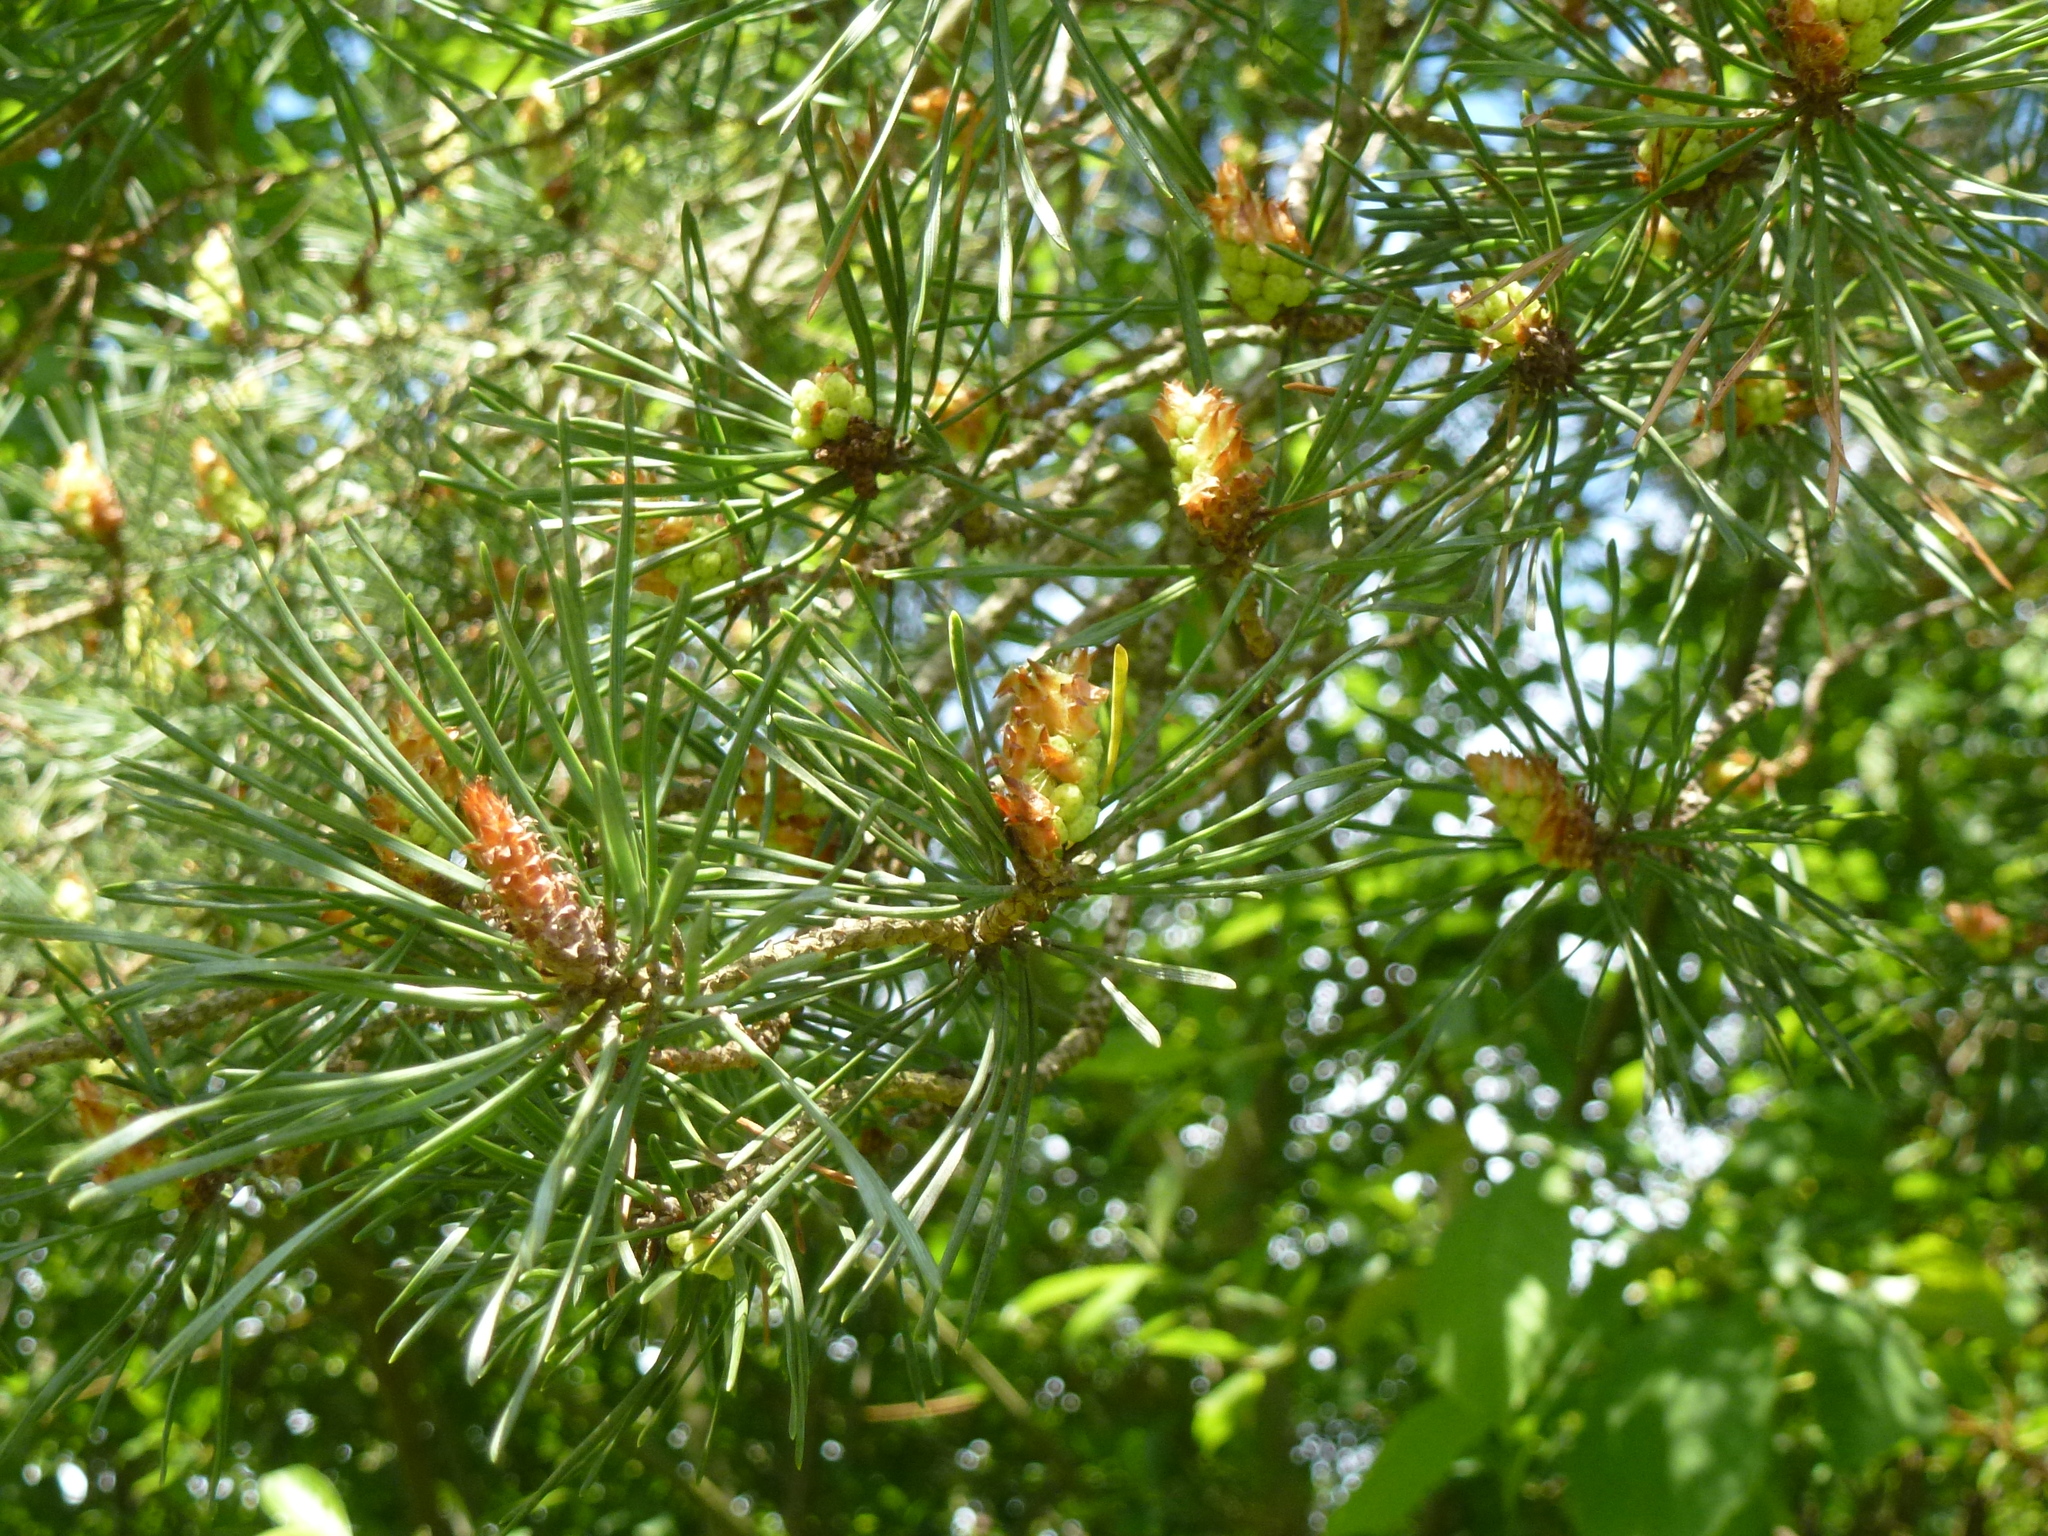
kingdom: Plantae
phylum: Tracheophyta
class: Pinopsida
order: Pinales
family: Pinaceae
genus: Pinus
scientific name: Pinus sylvestris
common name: Scots pine
